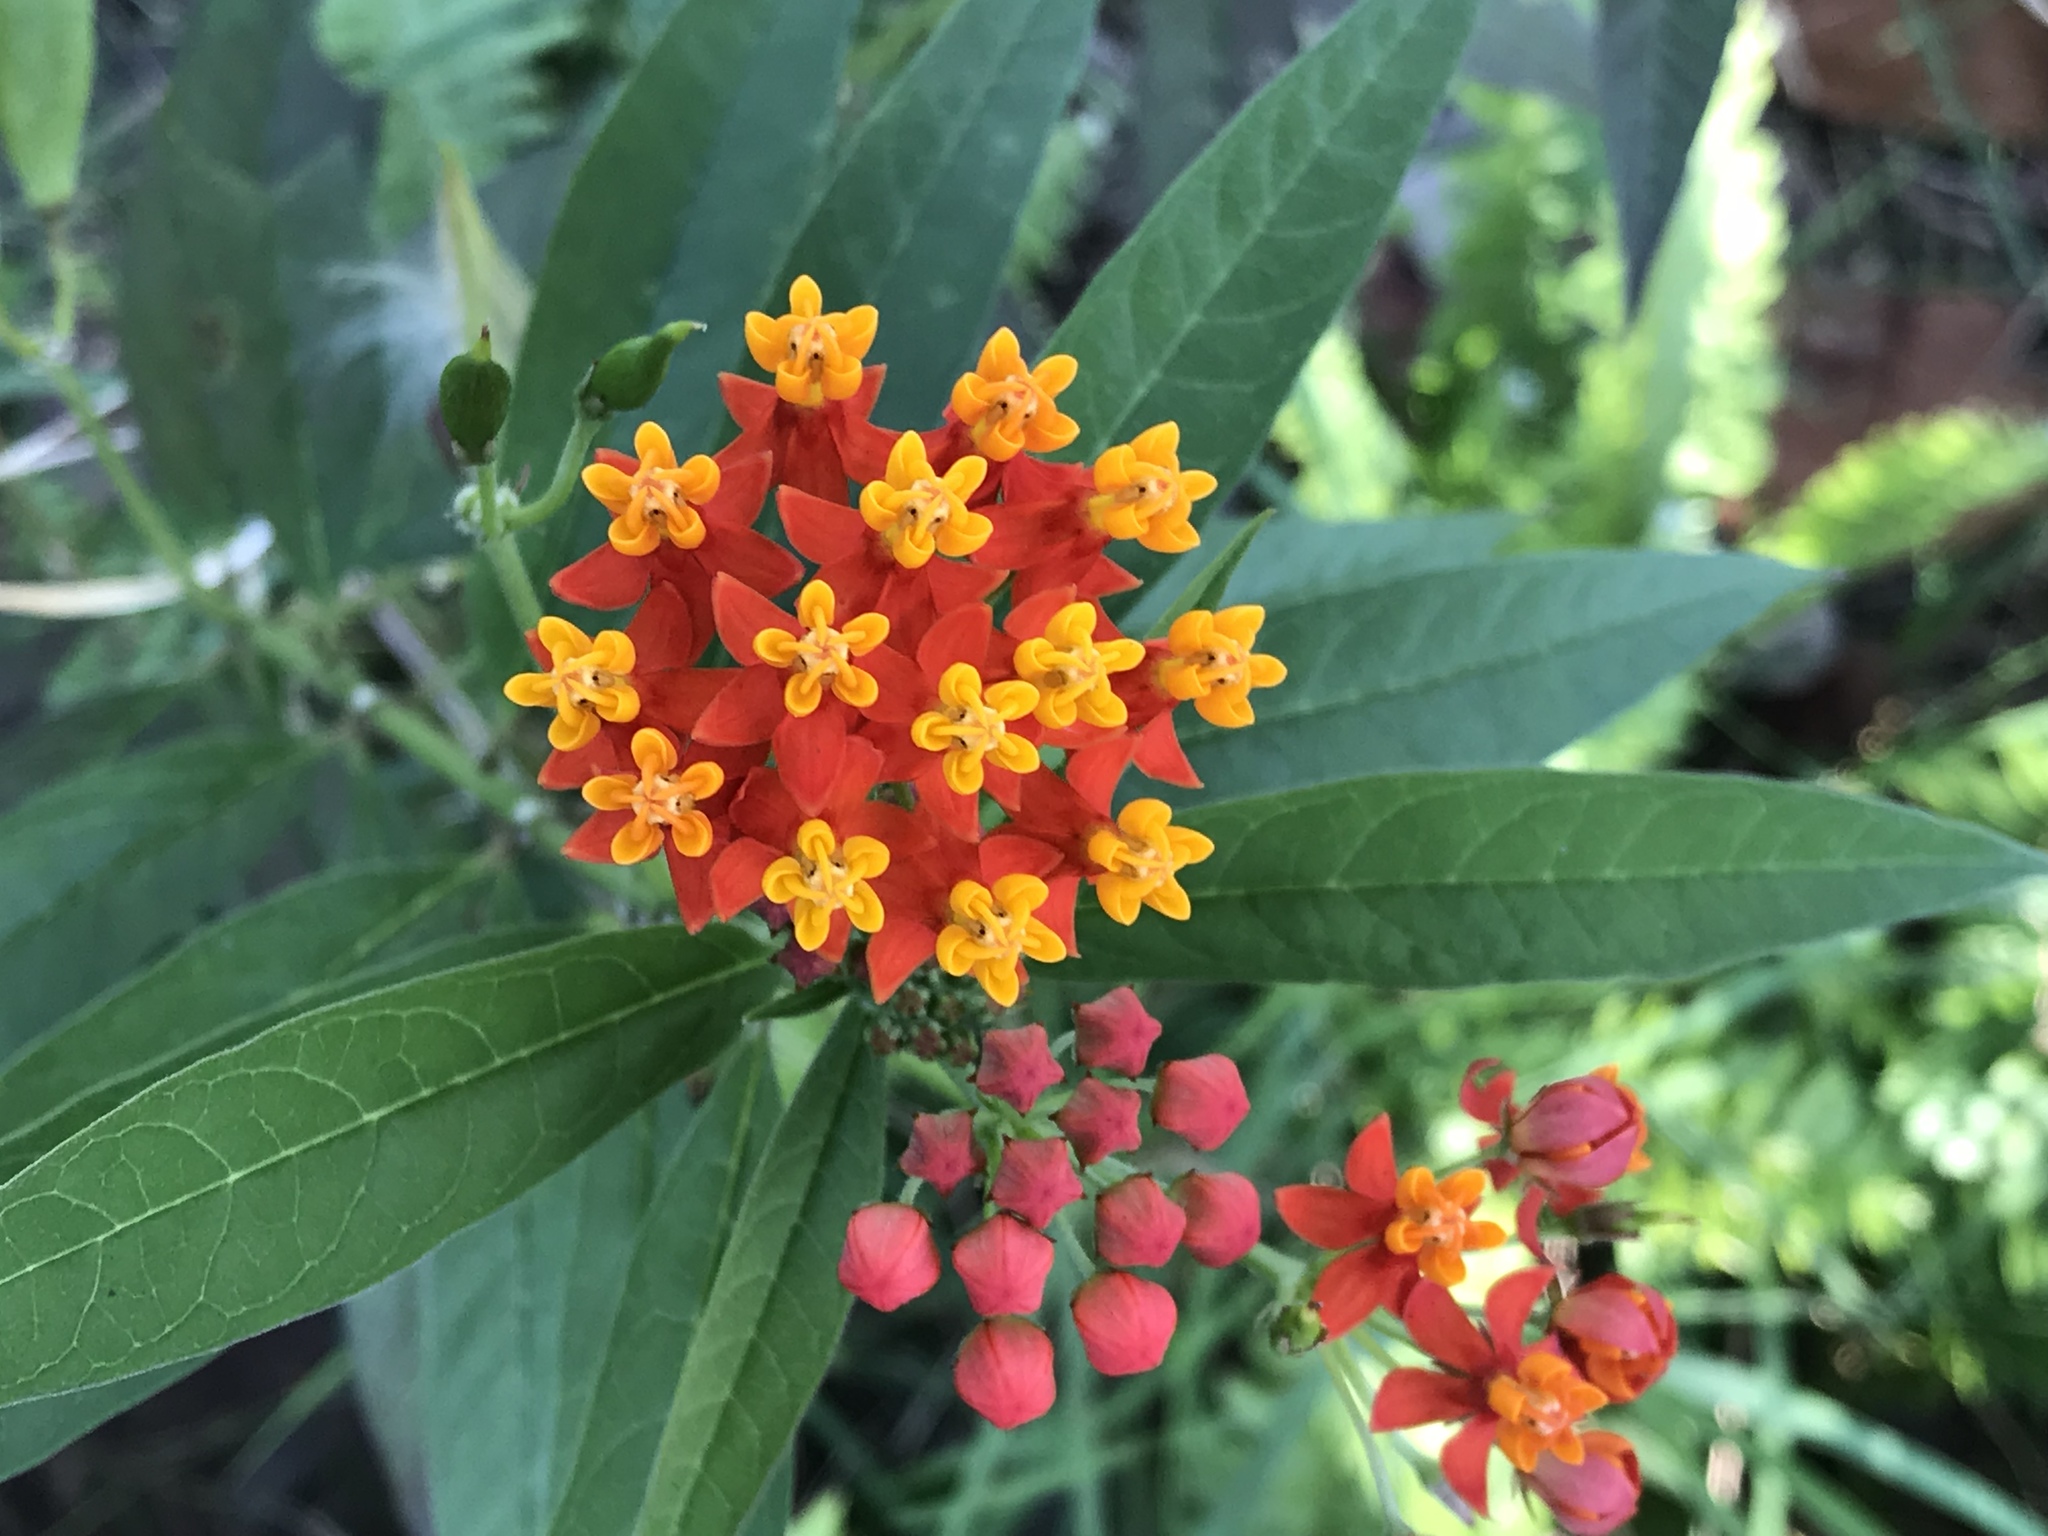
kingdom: Plantae
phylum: Tracheophyta
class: Magnoliopsida
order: Gentianales
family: Apocynaceae
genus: Asclepias
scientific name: Asclepias curassavica
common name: Bloodflower
